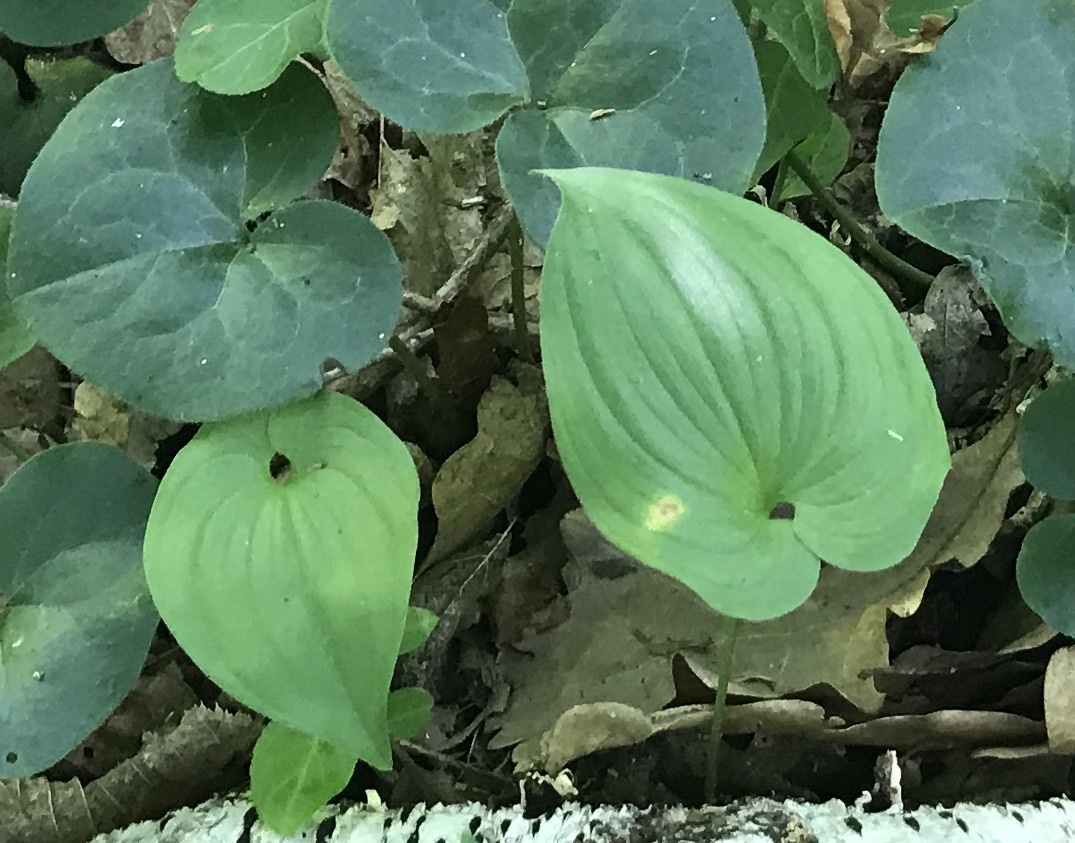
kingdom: Plantae
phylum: Tracheophyta
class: Liliopsida
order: Asparagales
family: Asparagaceae
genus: Maianthemum
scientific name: Maianthemum bifolium
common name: May lily
